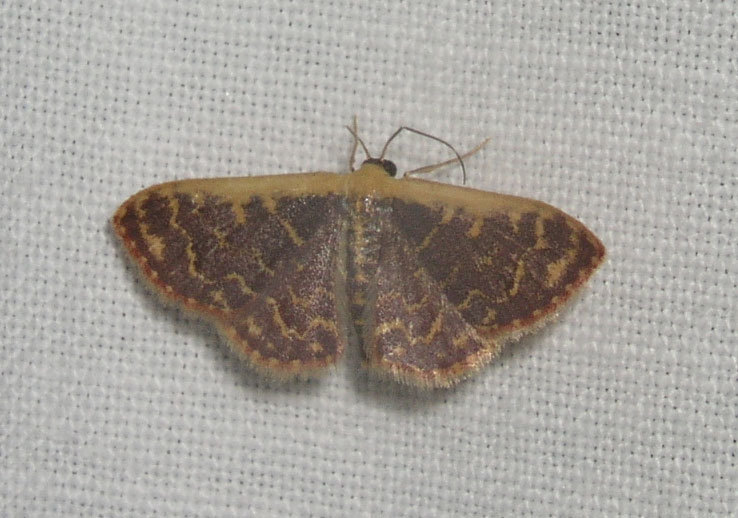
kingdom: Animalia
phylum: Arthropoda
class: Insecta
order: Lepidoptera
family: Geometridae
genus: Leptostales
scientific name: Leptostales crossii
